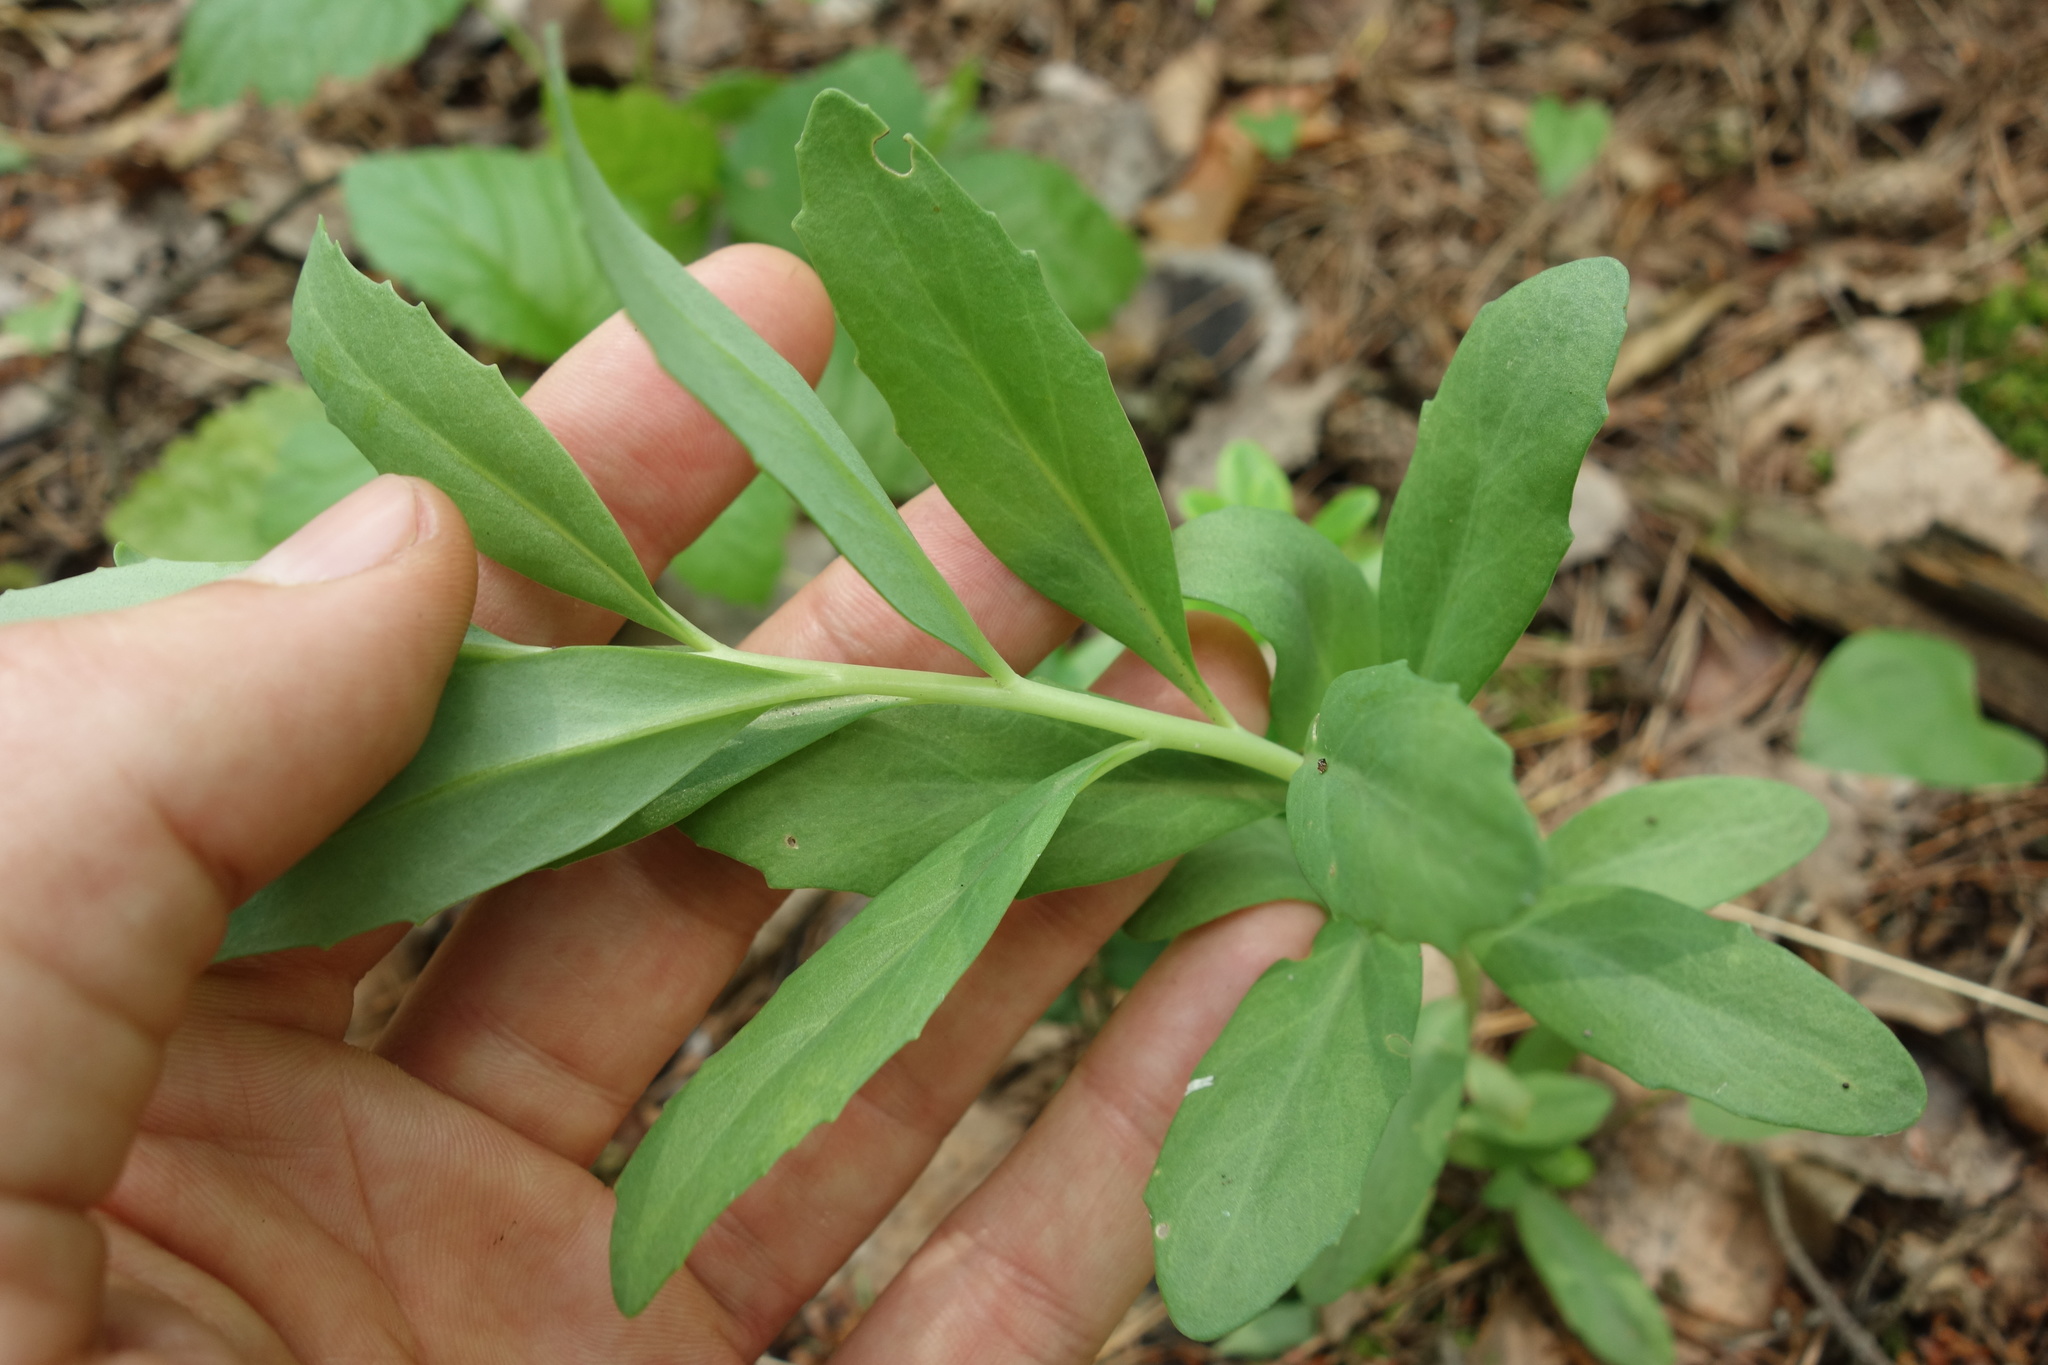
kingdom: Plantae
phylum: Tracheophyta
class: Magnoliopsida
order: Saxifragales
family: Crassulaceae
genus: Hylotelephium
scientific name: Hylotelephium telephium
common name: Live-forever
